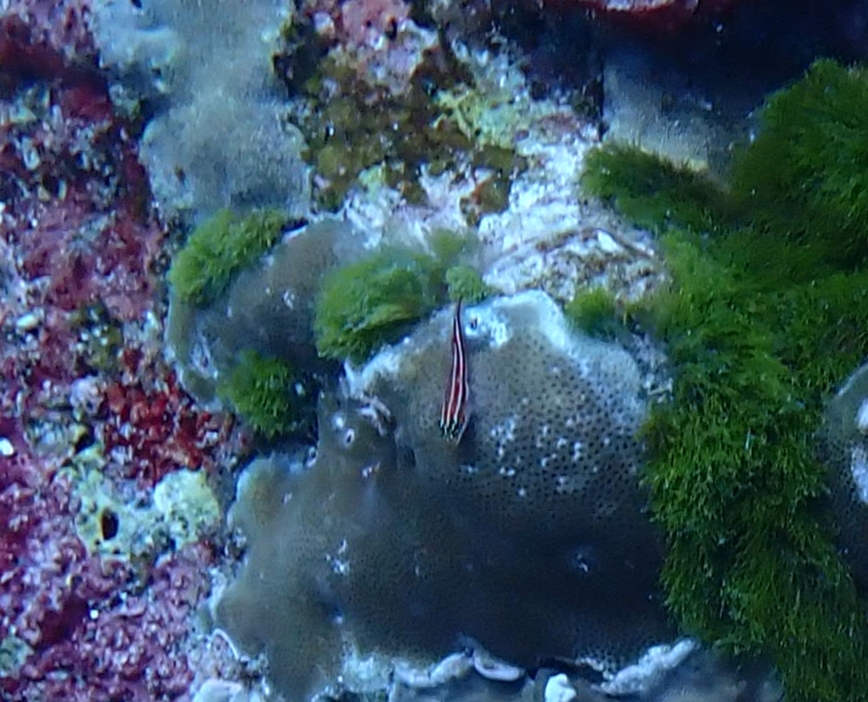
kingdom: Animalia
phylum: Chordata
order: Perciformes
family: Tripterygiidae
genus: Helcogramma
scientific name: Helcogramma striata
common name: Striped threefin
